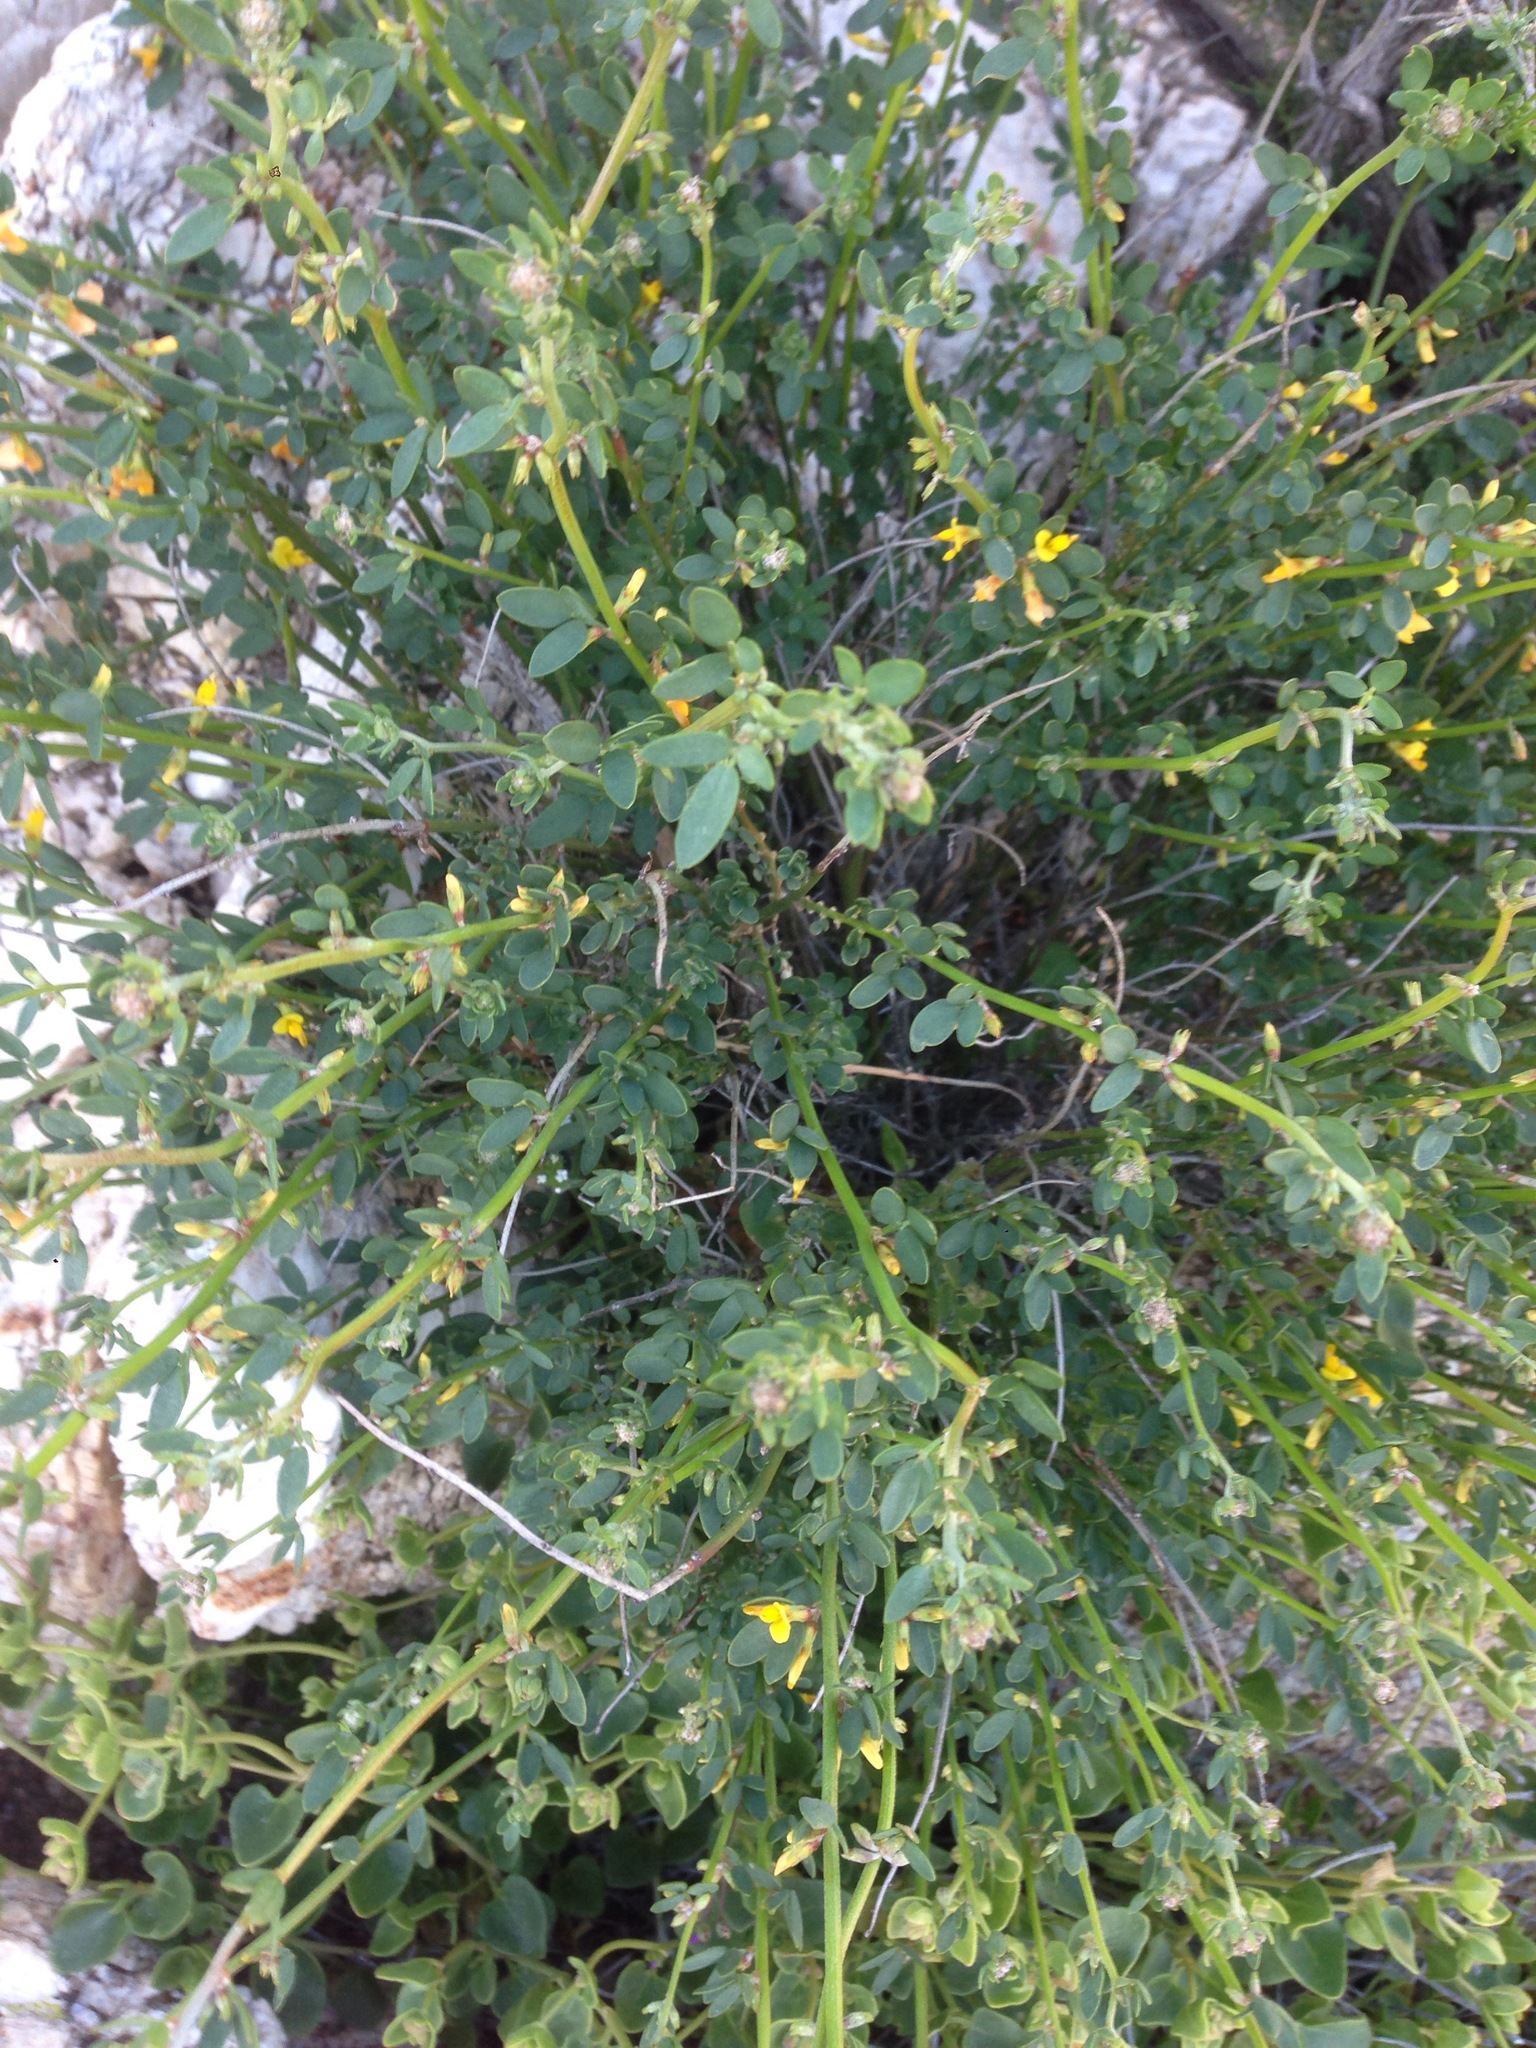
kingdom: Plantae
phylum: Tracheophyta
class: Magnoliopsida
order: Fabales
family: Fabaceae
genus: Acmispon
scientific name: Acmispon glaber
